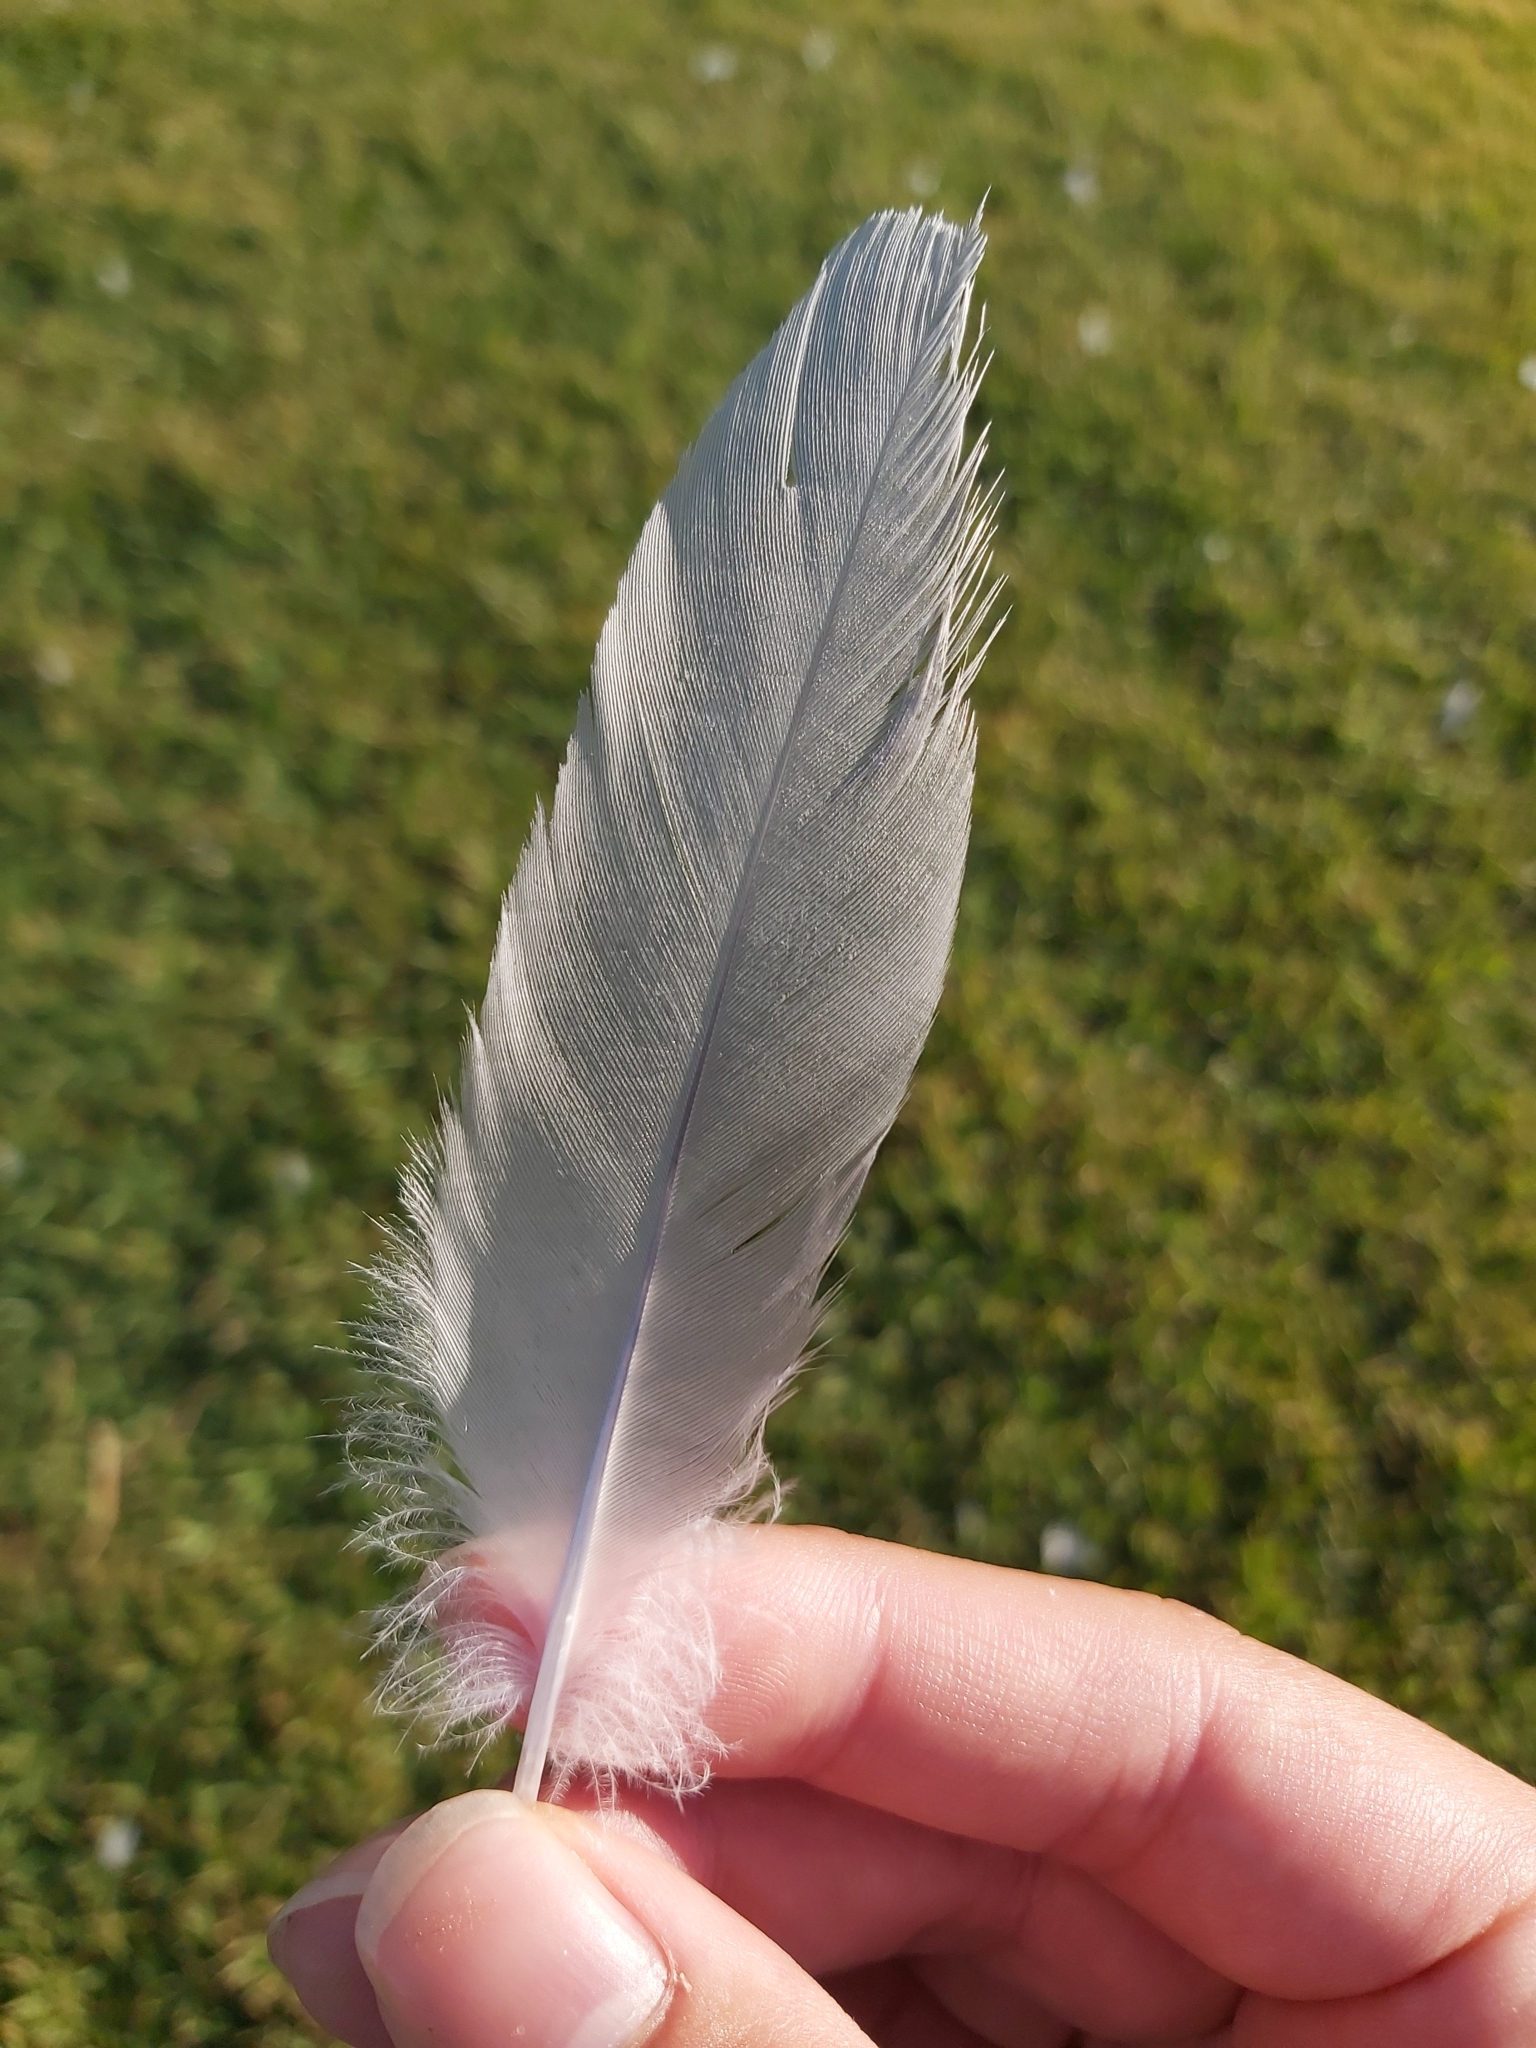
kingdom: Animalia
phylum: Chordata
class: Aves
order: Charadriiformes
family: Laridae
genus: Chroicocephalus
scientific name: Chroicocephalus novaehollandiae
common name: Silver gull
